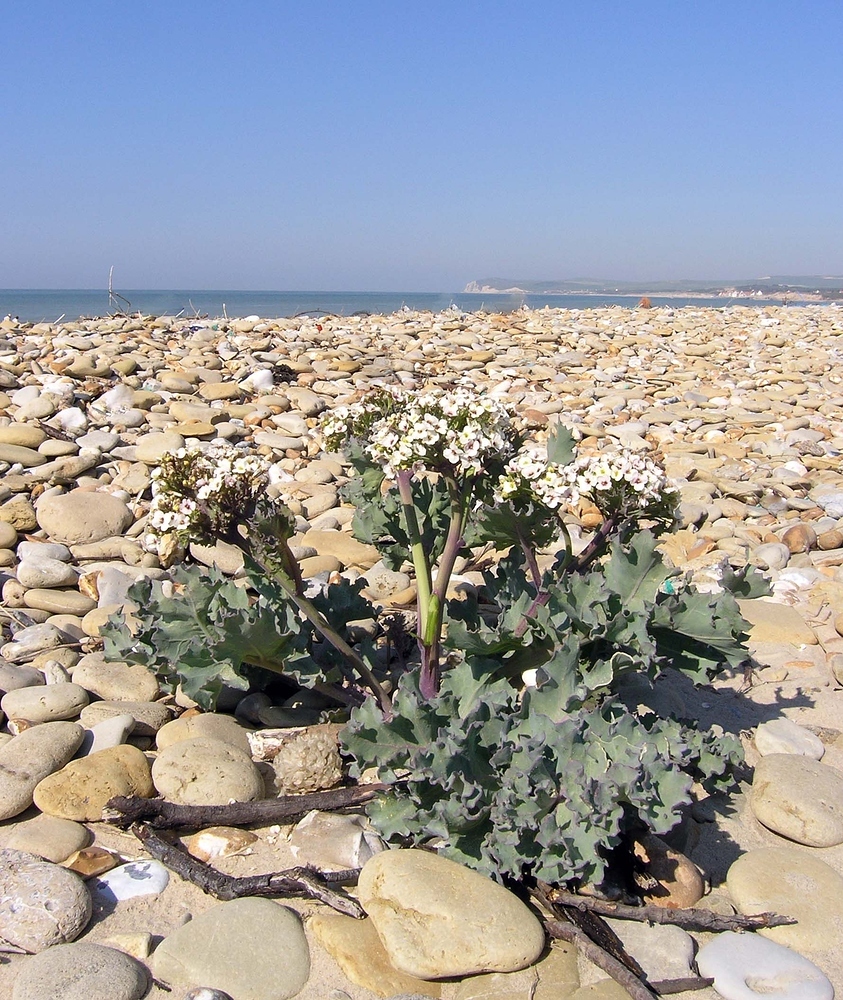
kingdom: Plantae
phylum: Tracheophyta
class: Magnoliopsida
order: Brassicales
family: Brassicaceae
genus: Crambe
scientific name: Crambe maritima
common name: Sea-kale
